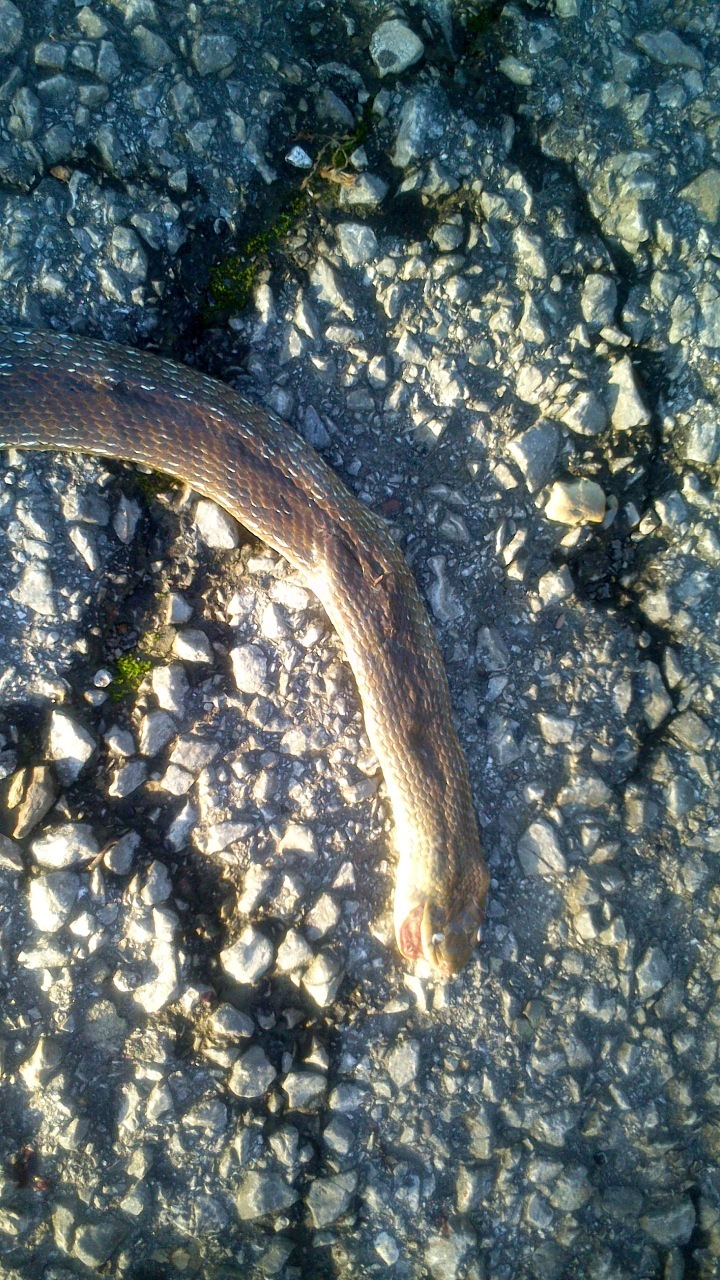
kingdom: Animalia
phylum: Chordata
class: Squamata
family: Colubridae
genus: Zamenis
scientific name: Zamenis longissimus
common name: Aesculapean snake
